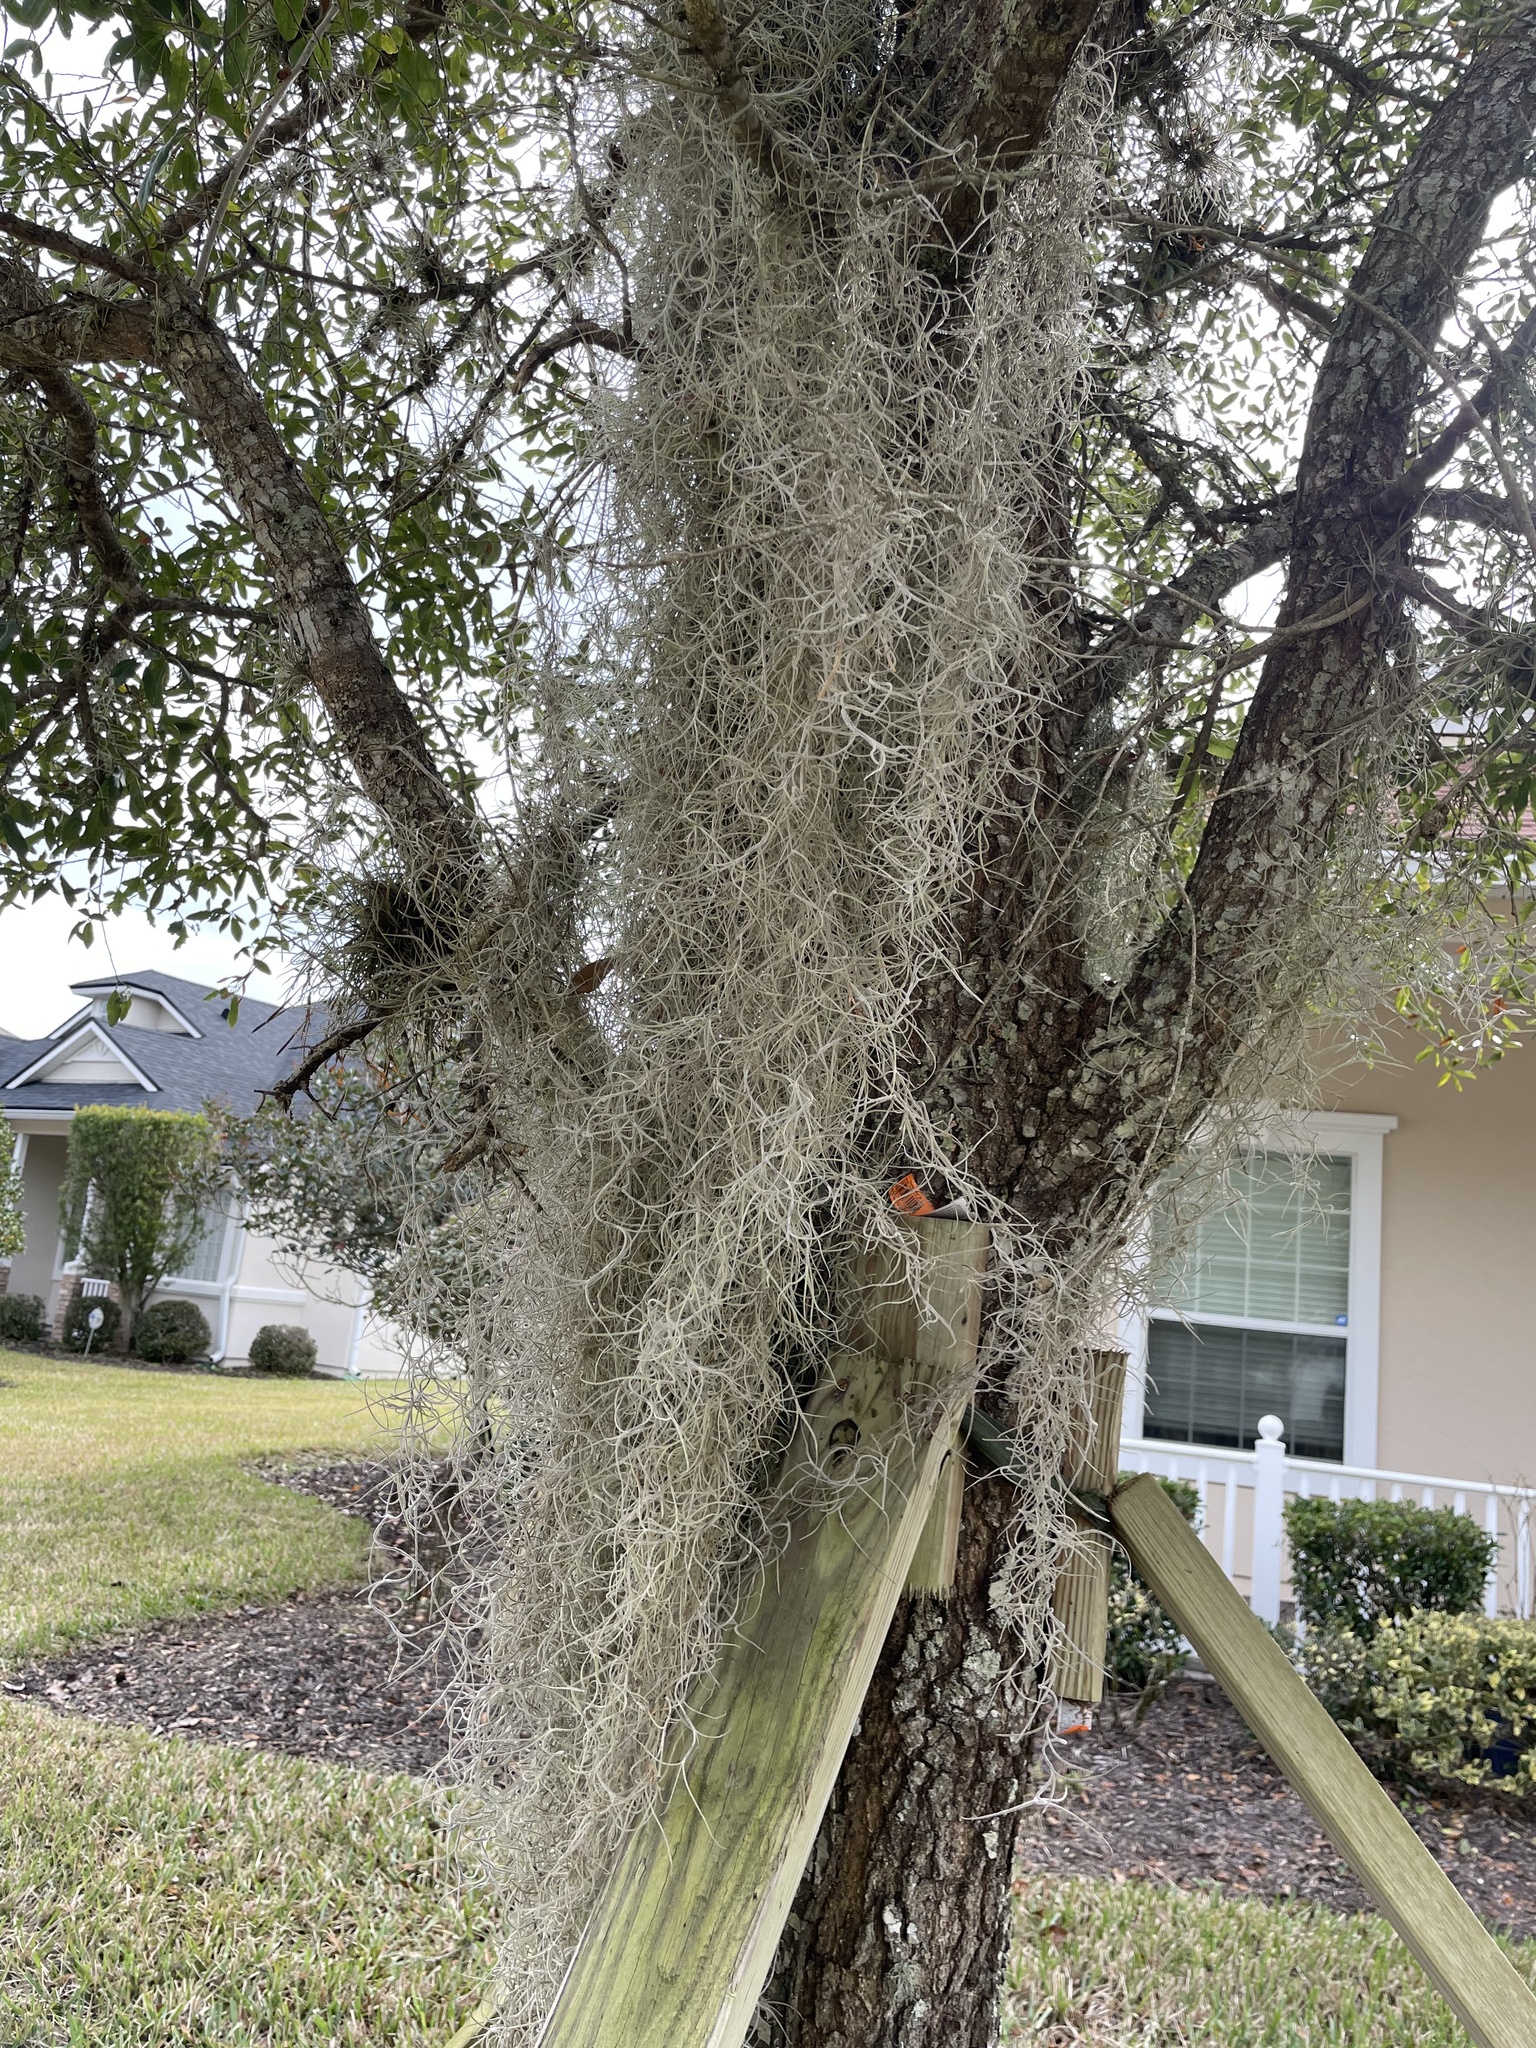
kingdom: Plantae
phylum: Tracheophyta
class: Liliopsida
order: Poales
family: Bromeliaceae
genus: Tillandsia
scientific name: Tillandsia usneoides
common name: Spanish moss
